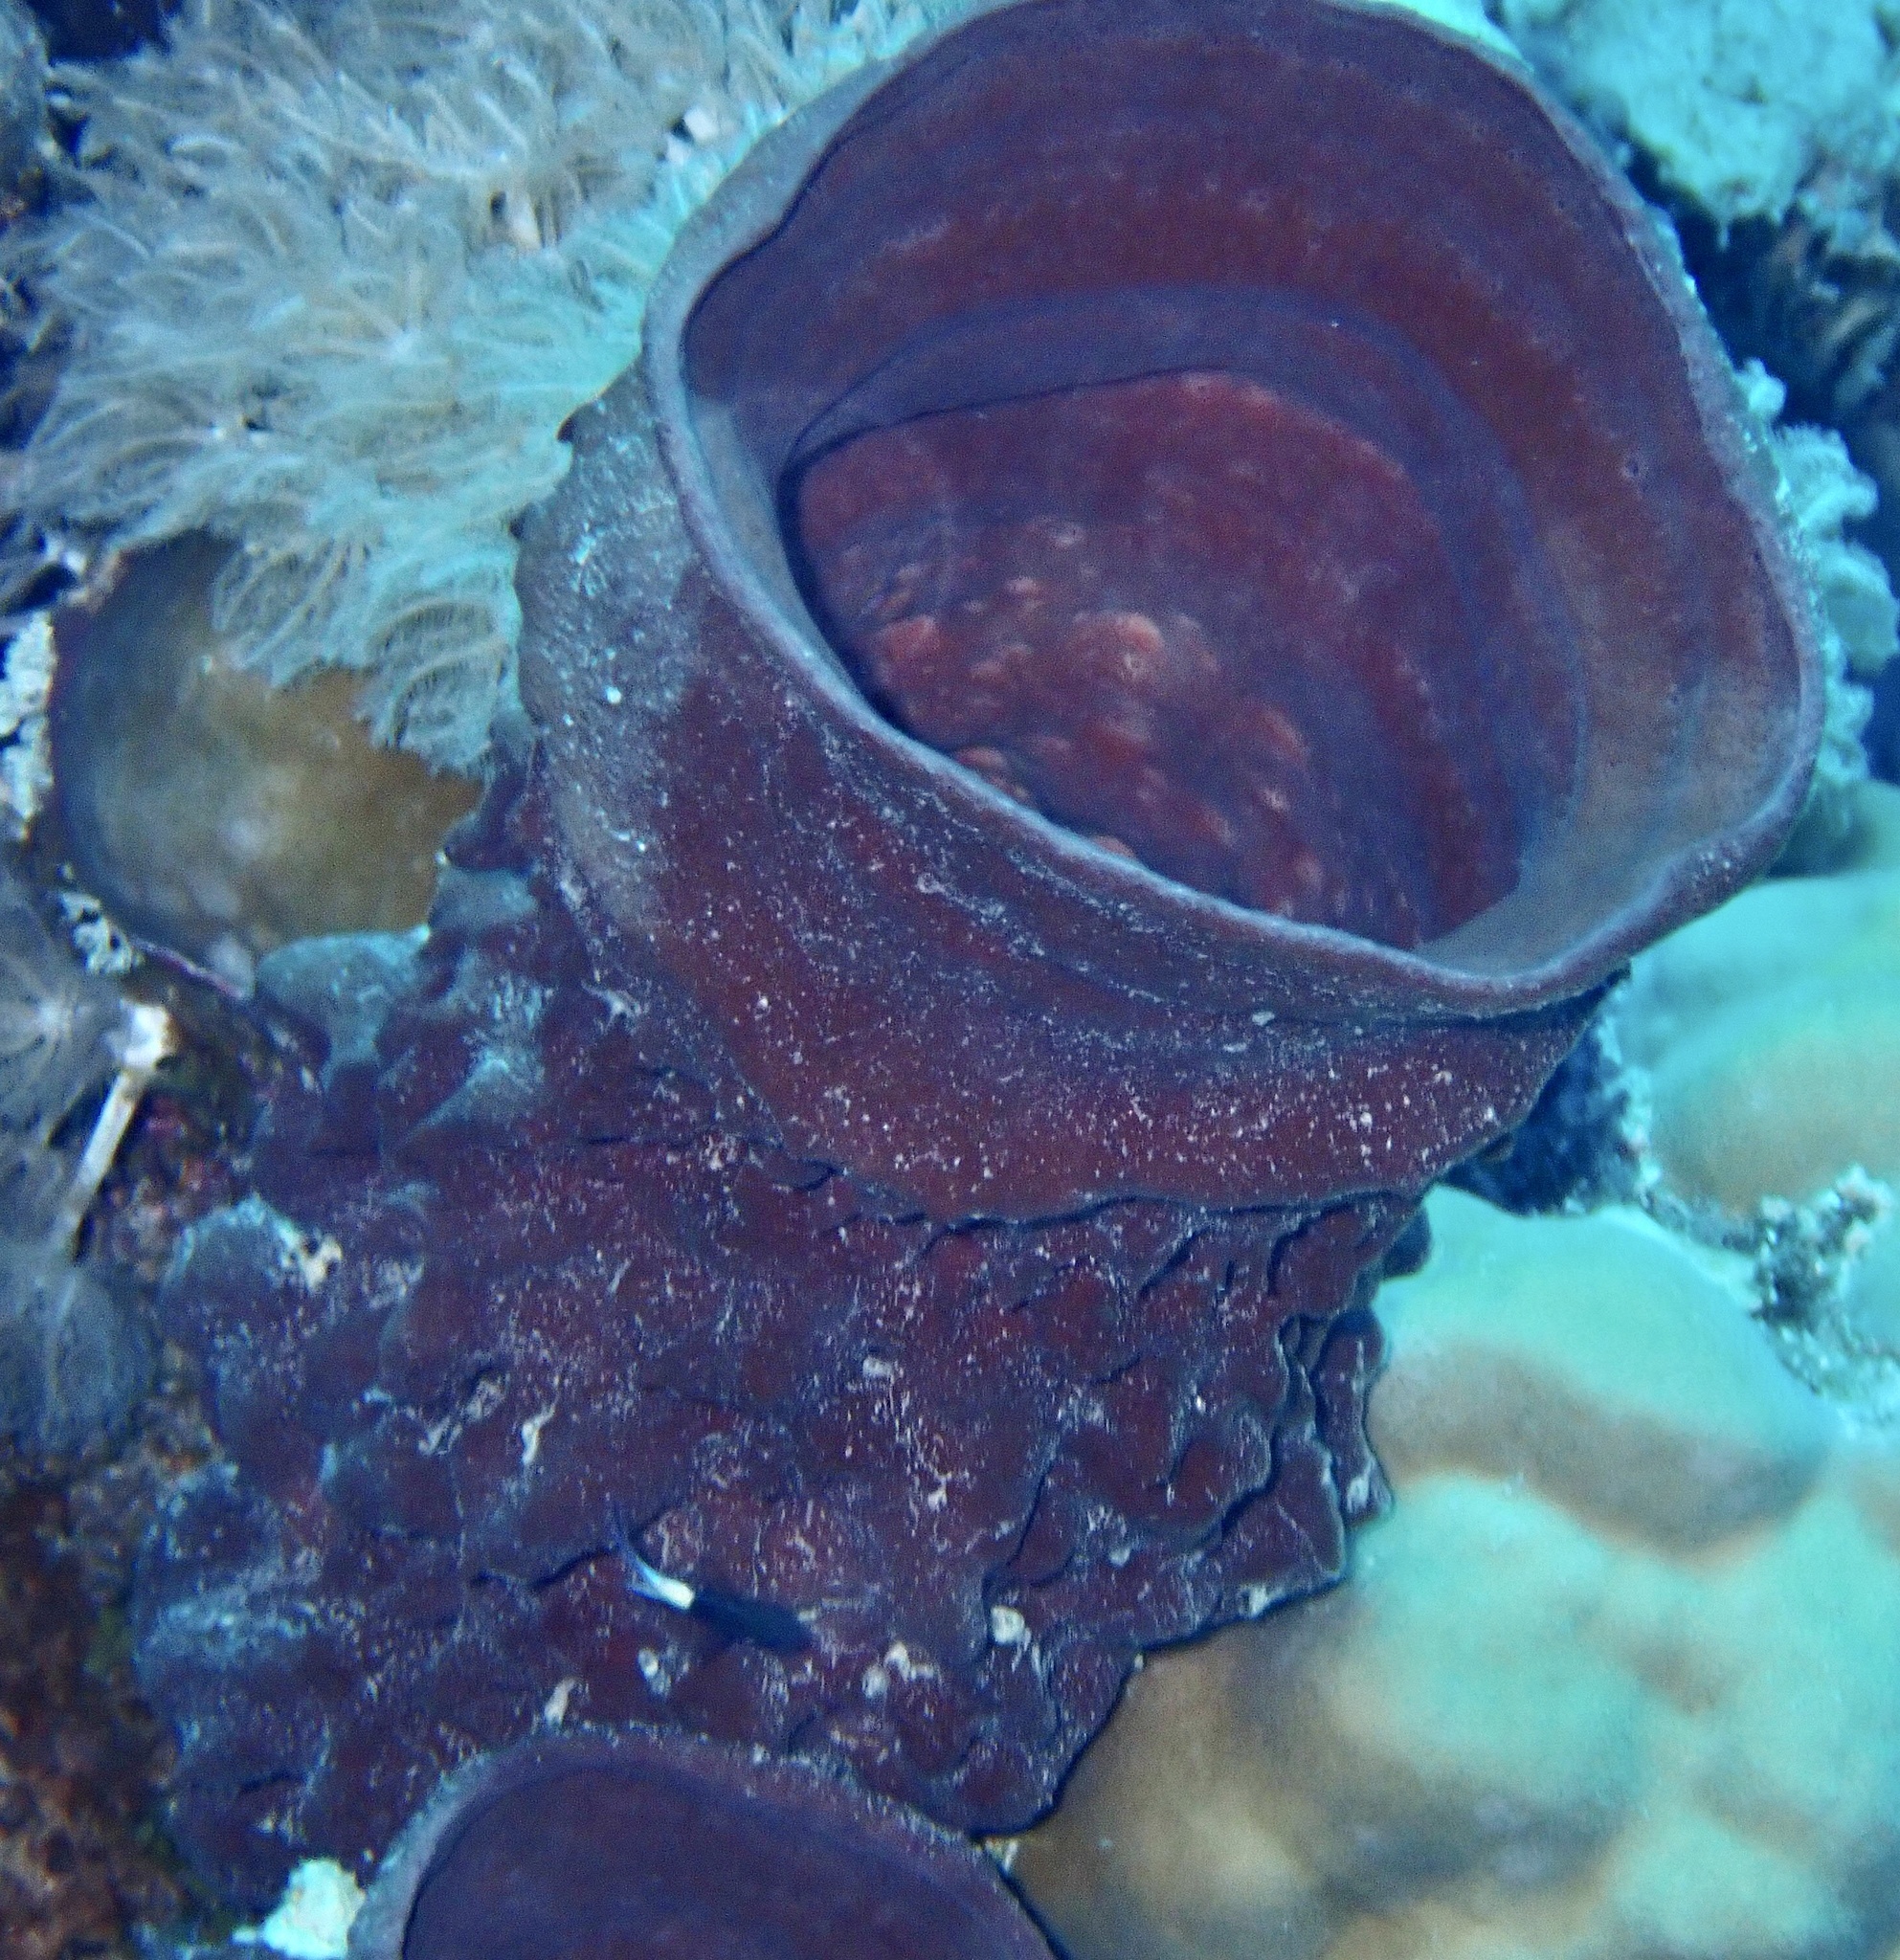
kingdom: Animalia
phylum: Porifera
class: Demospongiae
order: Haplosclerida
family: Callyspongiidae
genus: Callyspongia
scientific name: Callyspongia crassa
